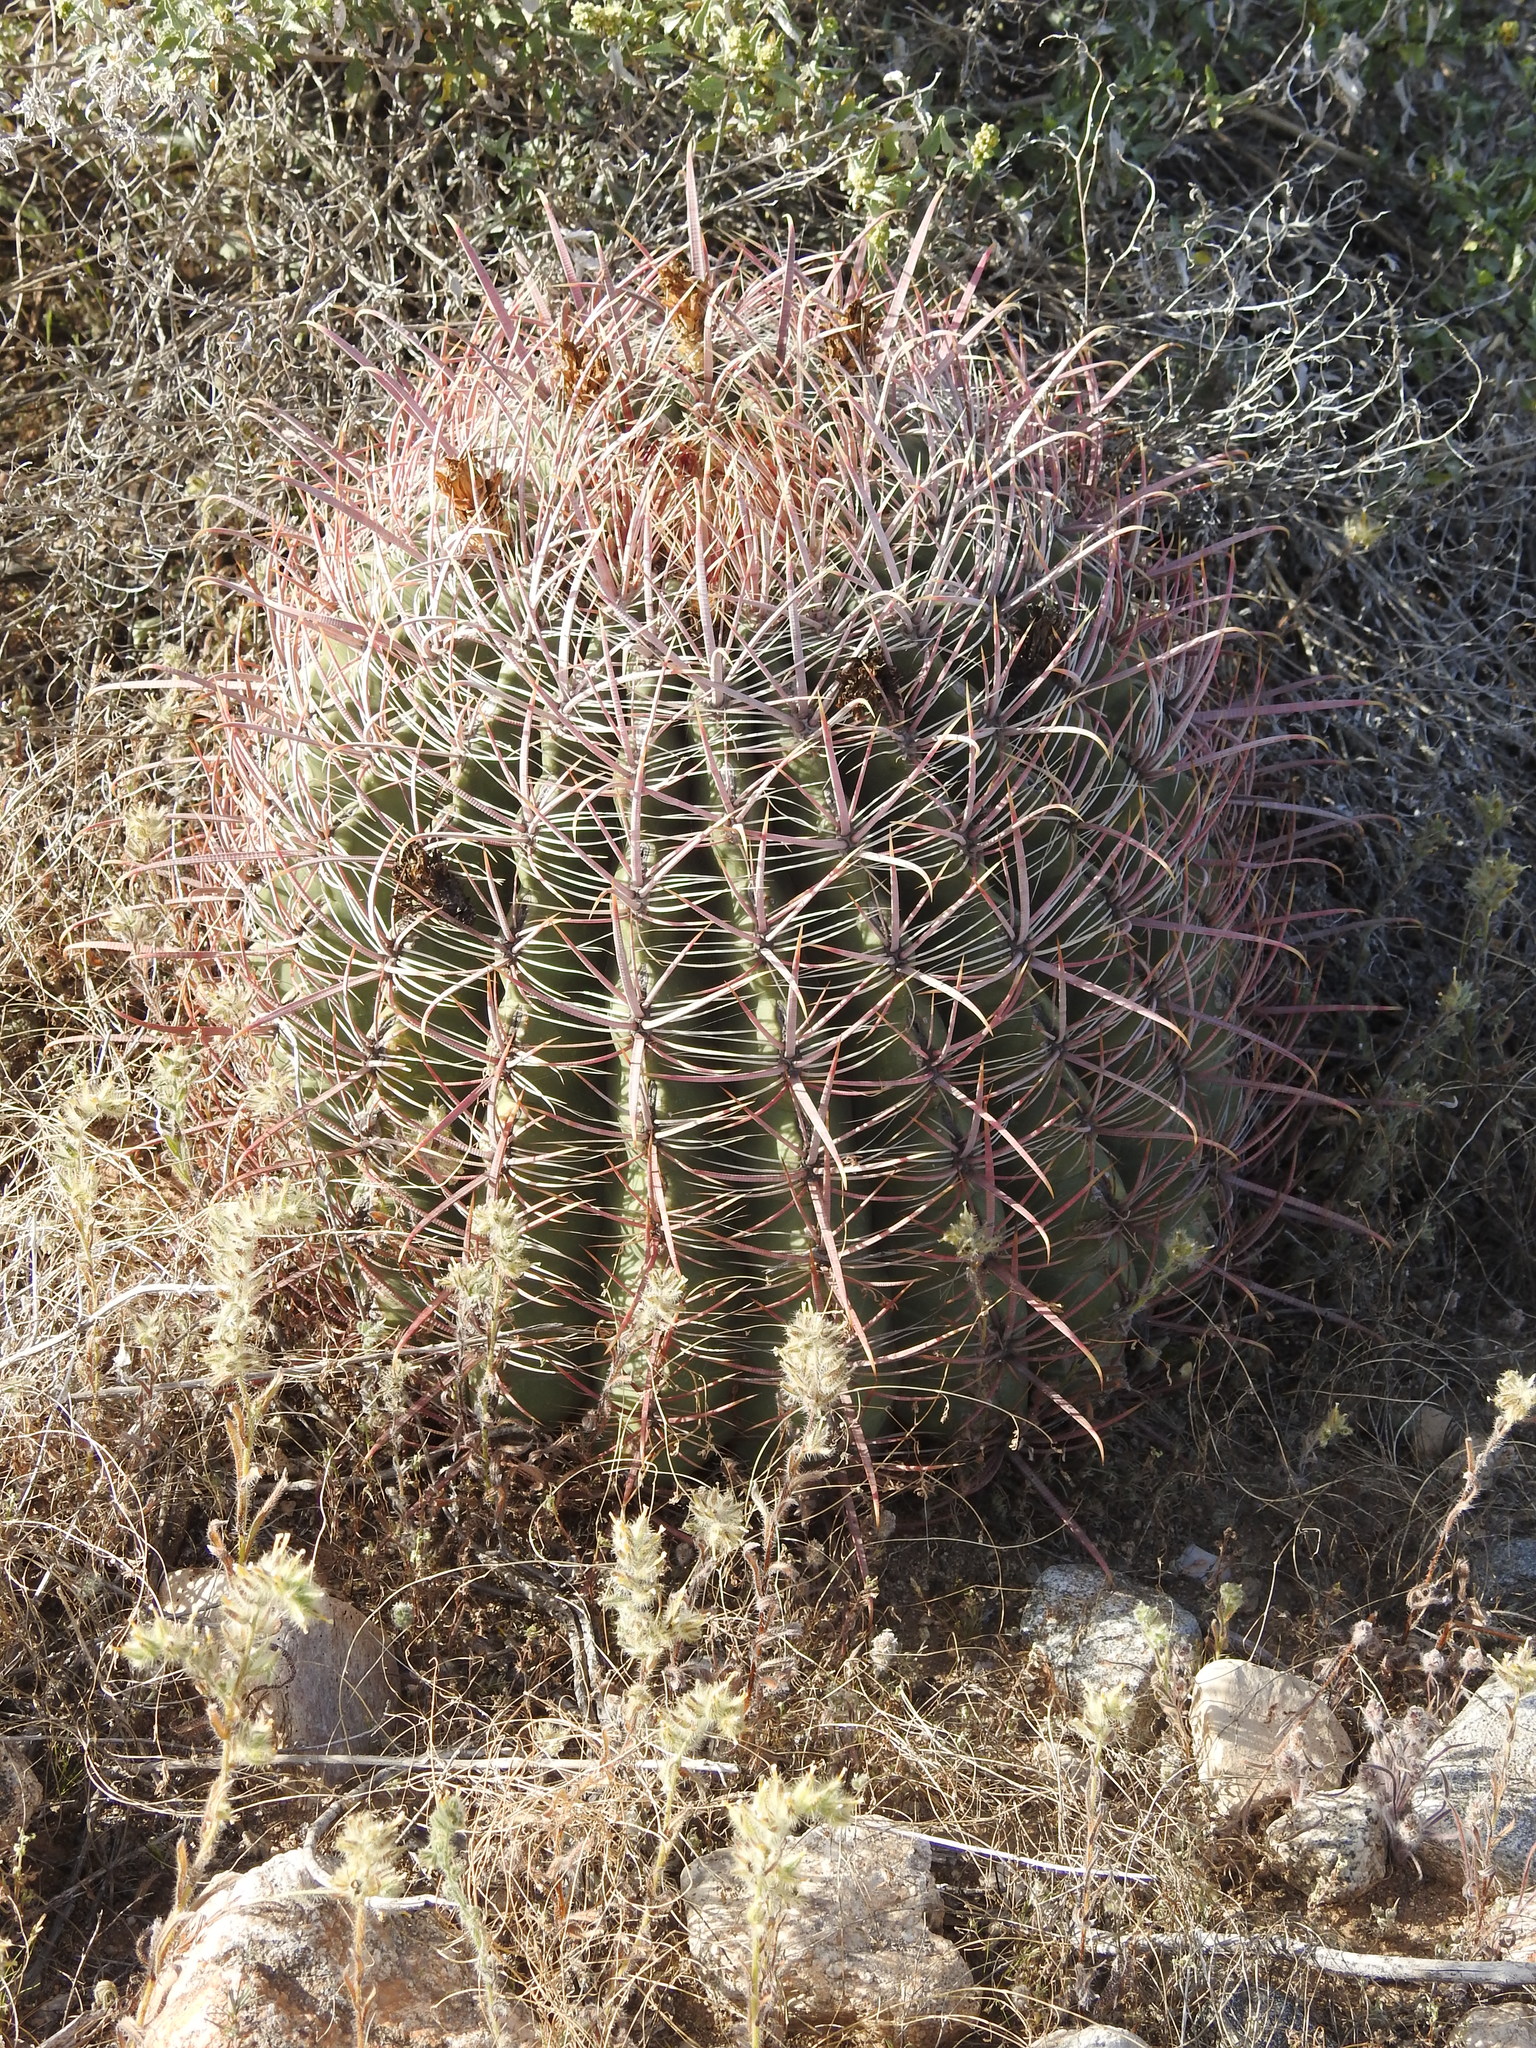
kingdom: Plantae
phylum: Tracheophyta
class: Magnoliopsida
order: Caryophyllales
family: Cactaceae
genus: Ferocactus
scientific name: Ferocactus cylindraceus
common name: California barrel cactus
